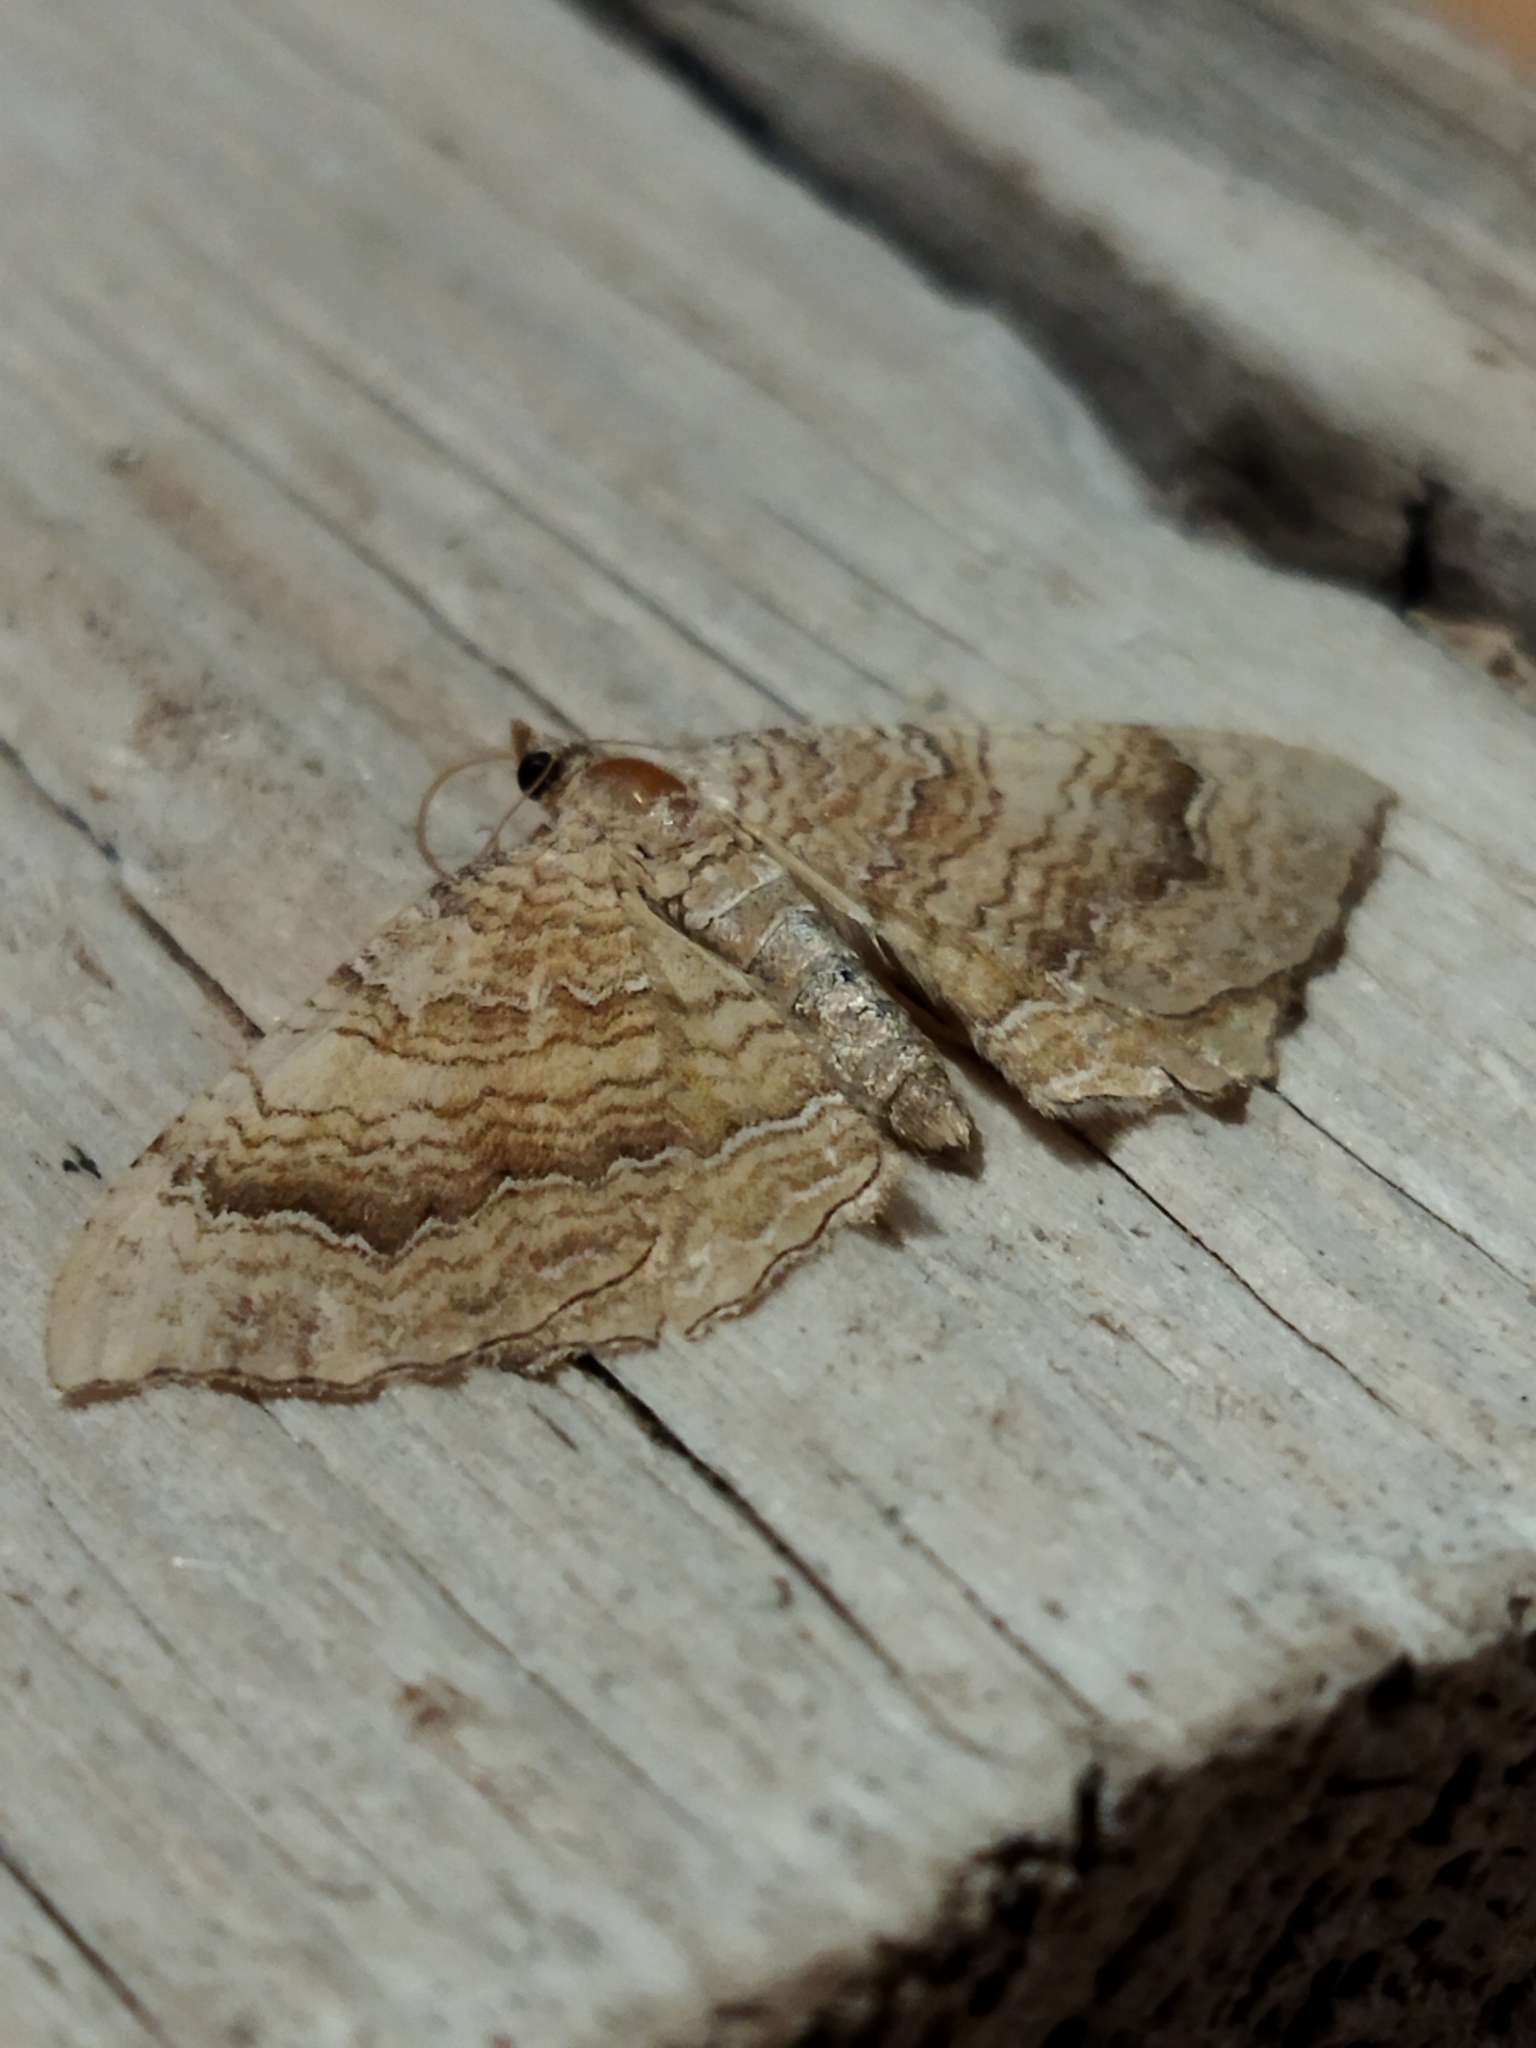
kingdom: Animalia
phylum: Arthropoda
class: Insecta
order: Lepidoptera
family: Geometridae
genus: Camptogramma
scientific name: Camptogramma bilineata
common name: Yellow shell
